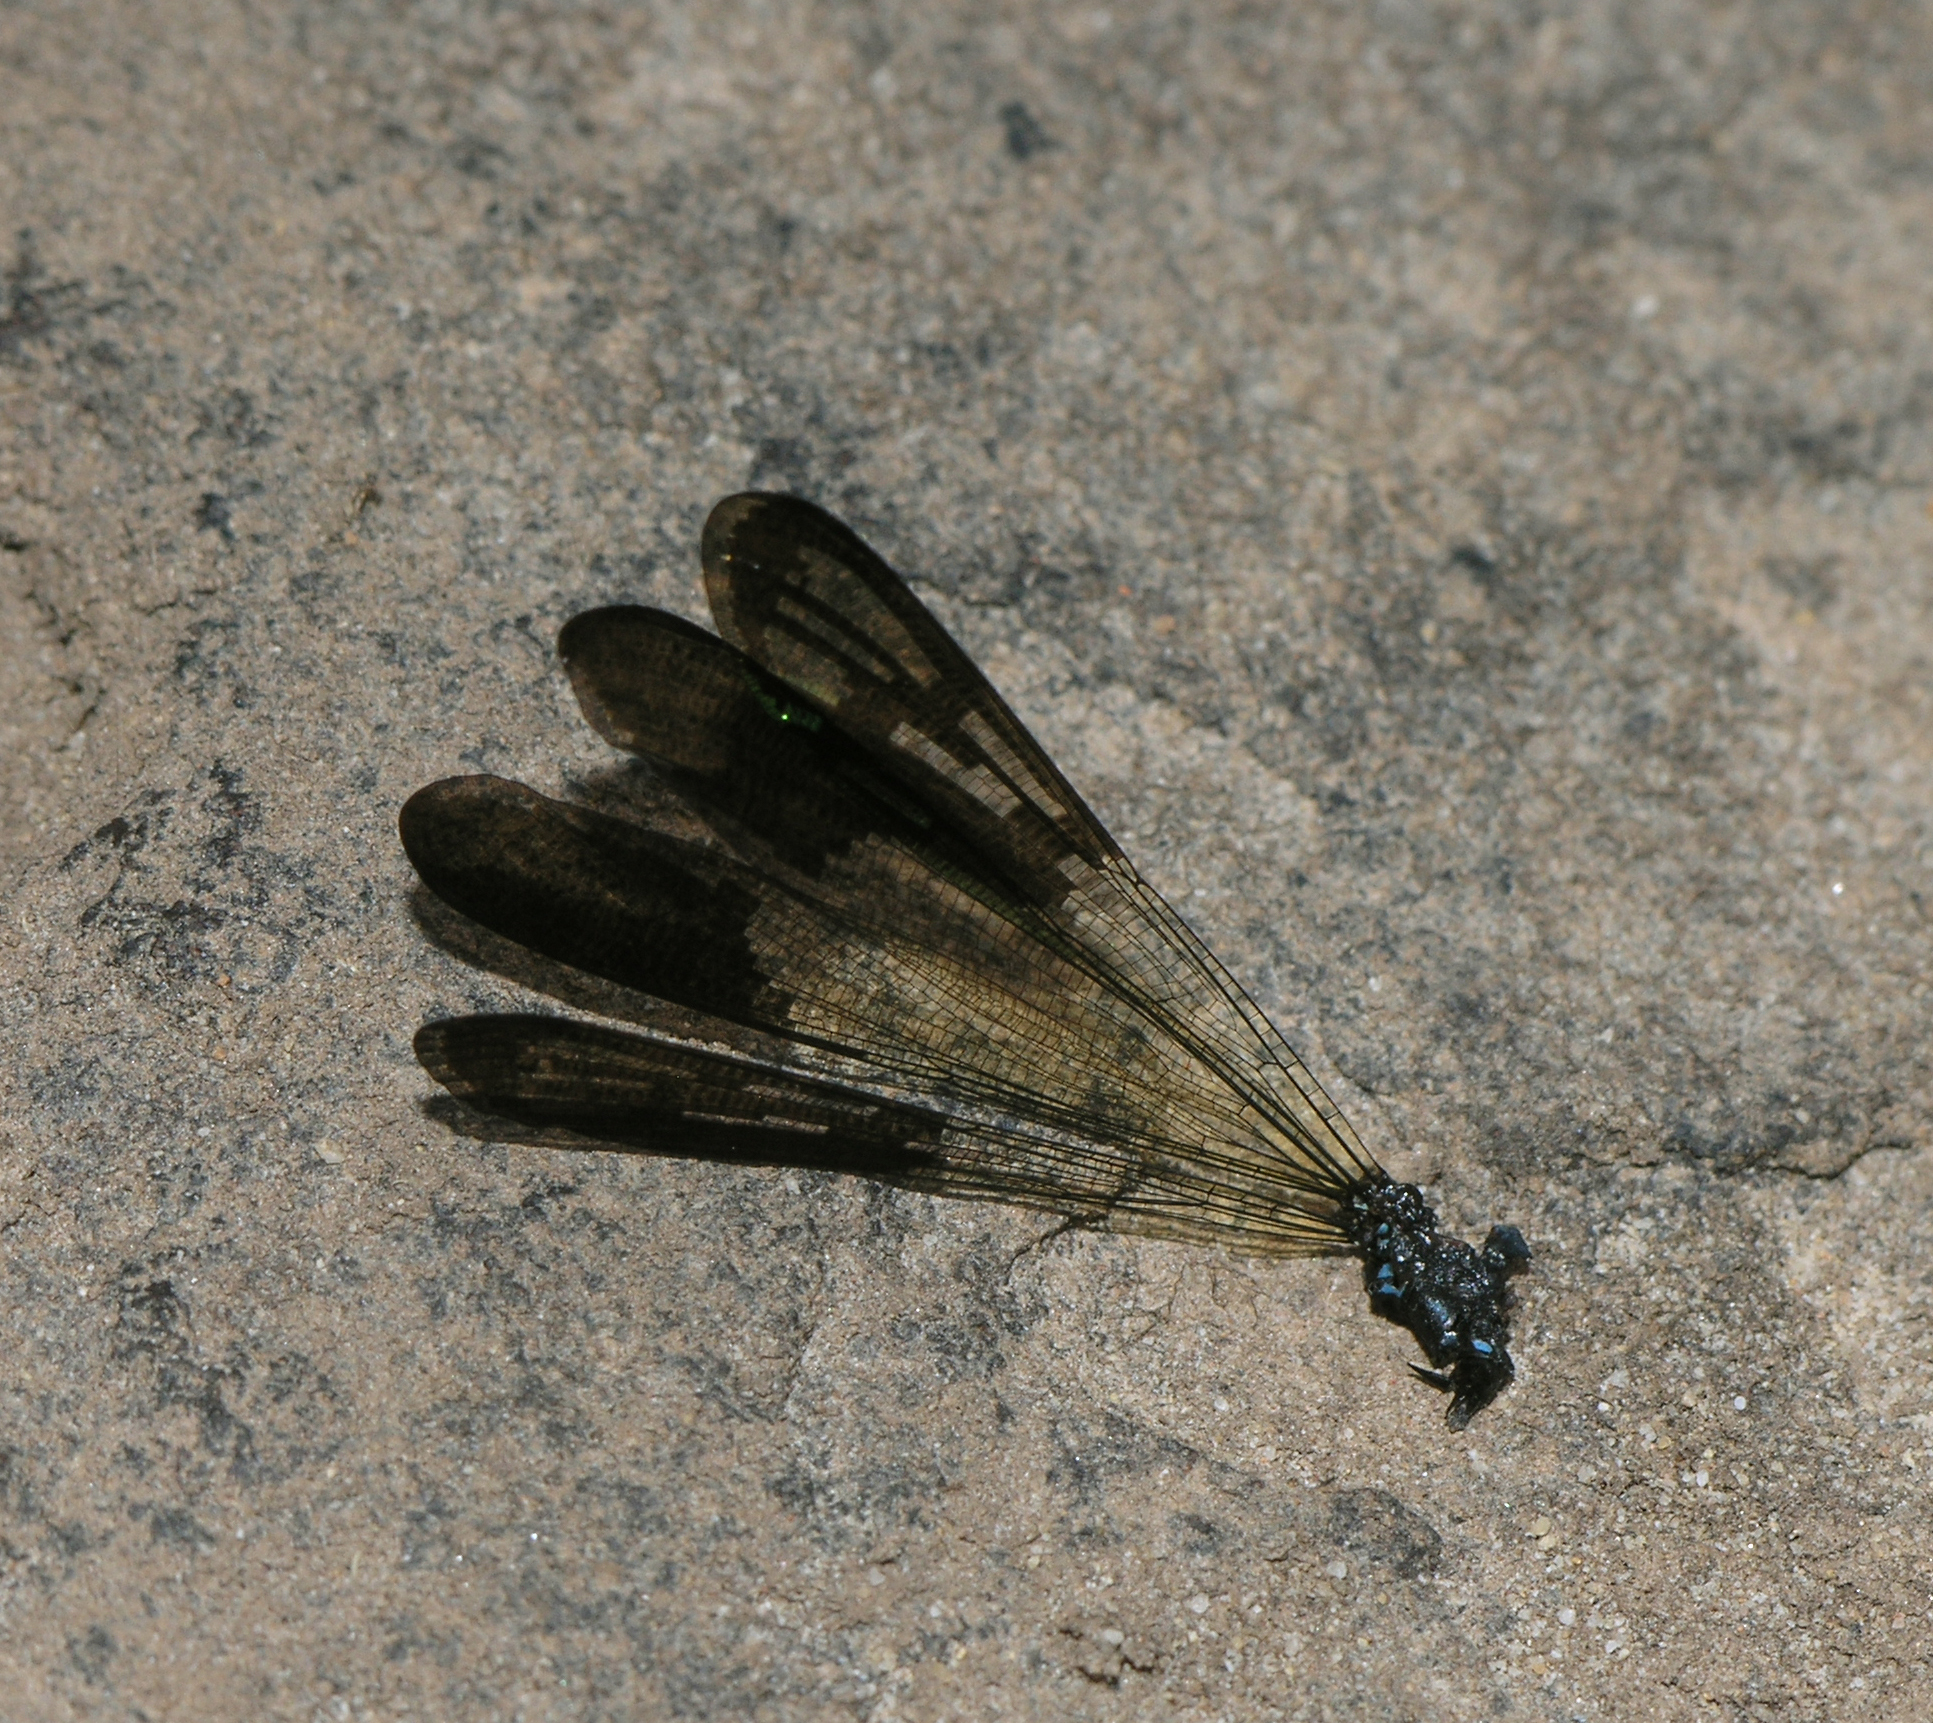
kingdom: Animalia
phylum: Arthropoda
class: Insecta
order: Odonata
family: Chlorocyphidae
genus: Heliocypha
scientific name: Heliocypha perforata
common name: Common blue jewel
